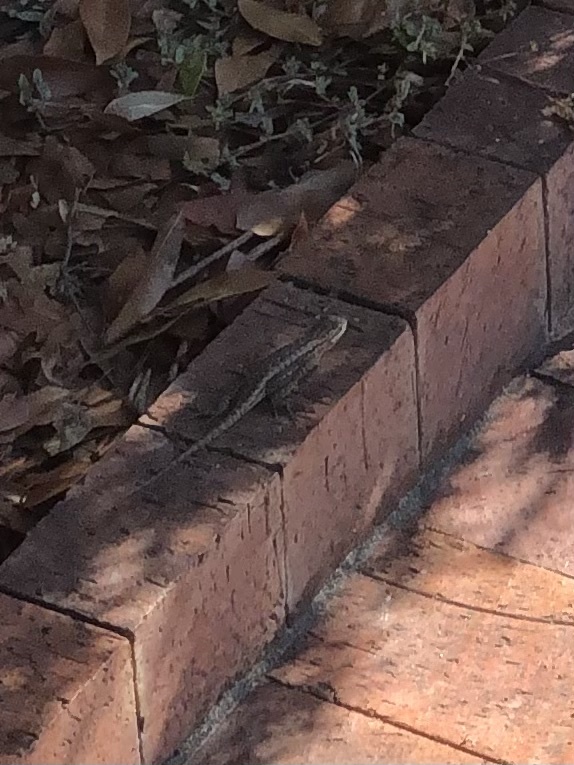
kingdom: Animalia
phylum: Chordata
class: Squamata
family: Phrynosomatidae
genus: Sceloporus
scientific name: Sceloporus occidentalis
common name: Western fence lizard
